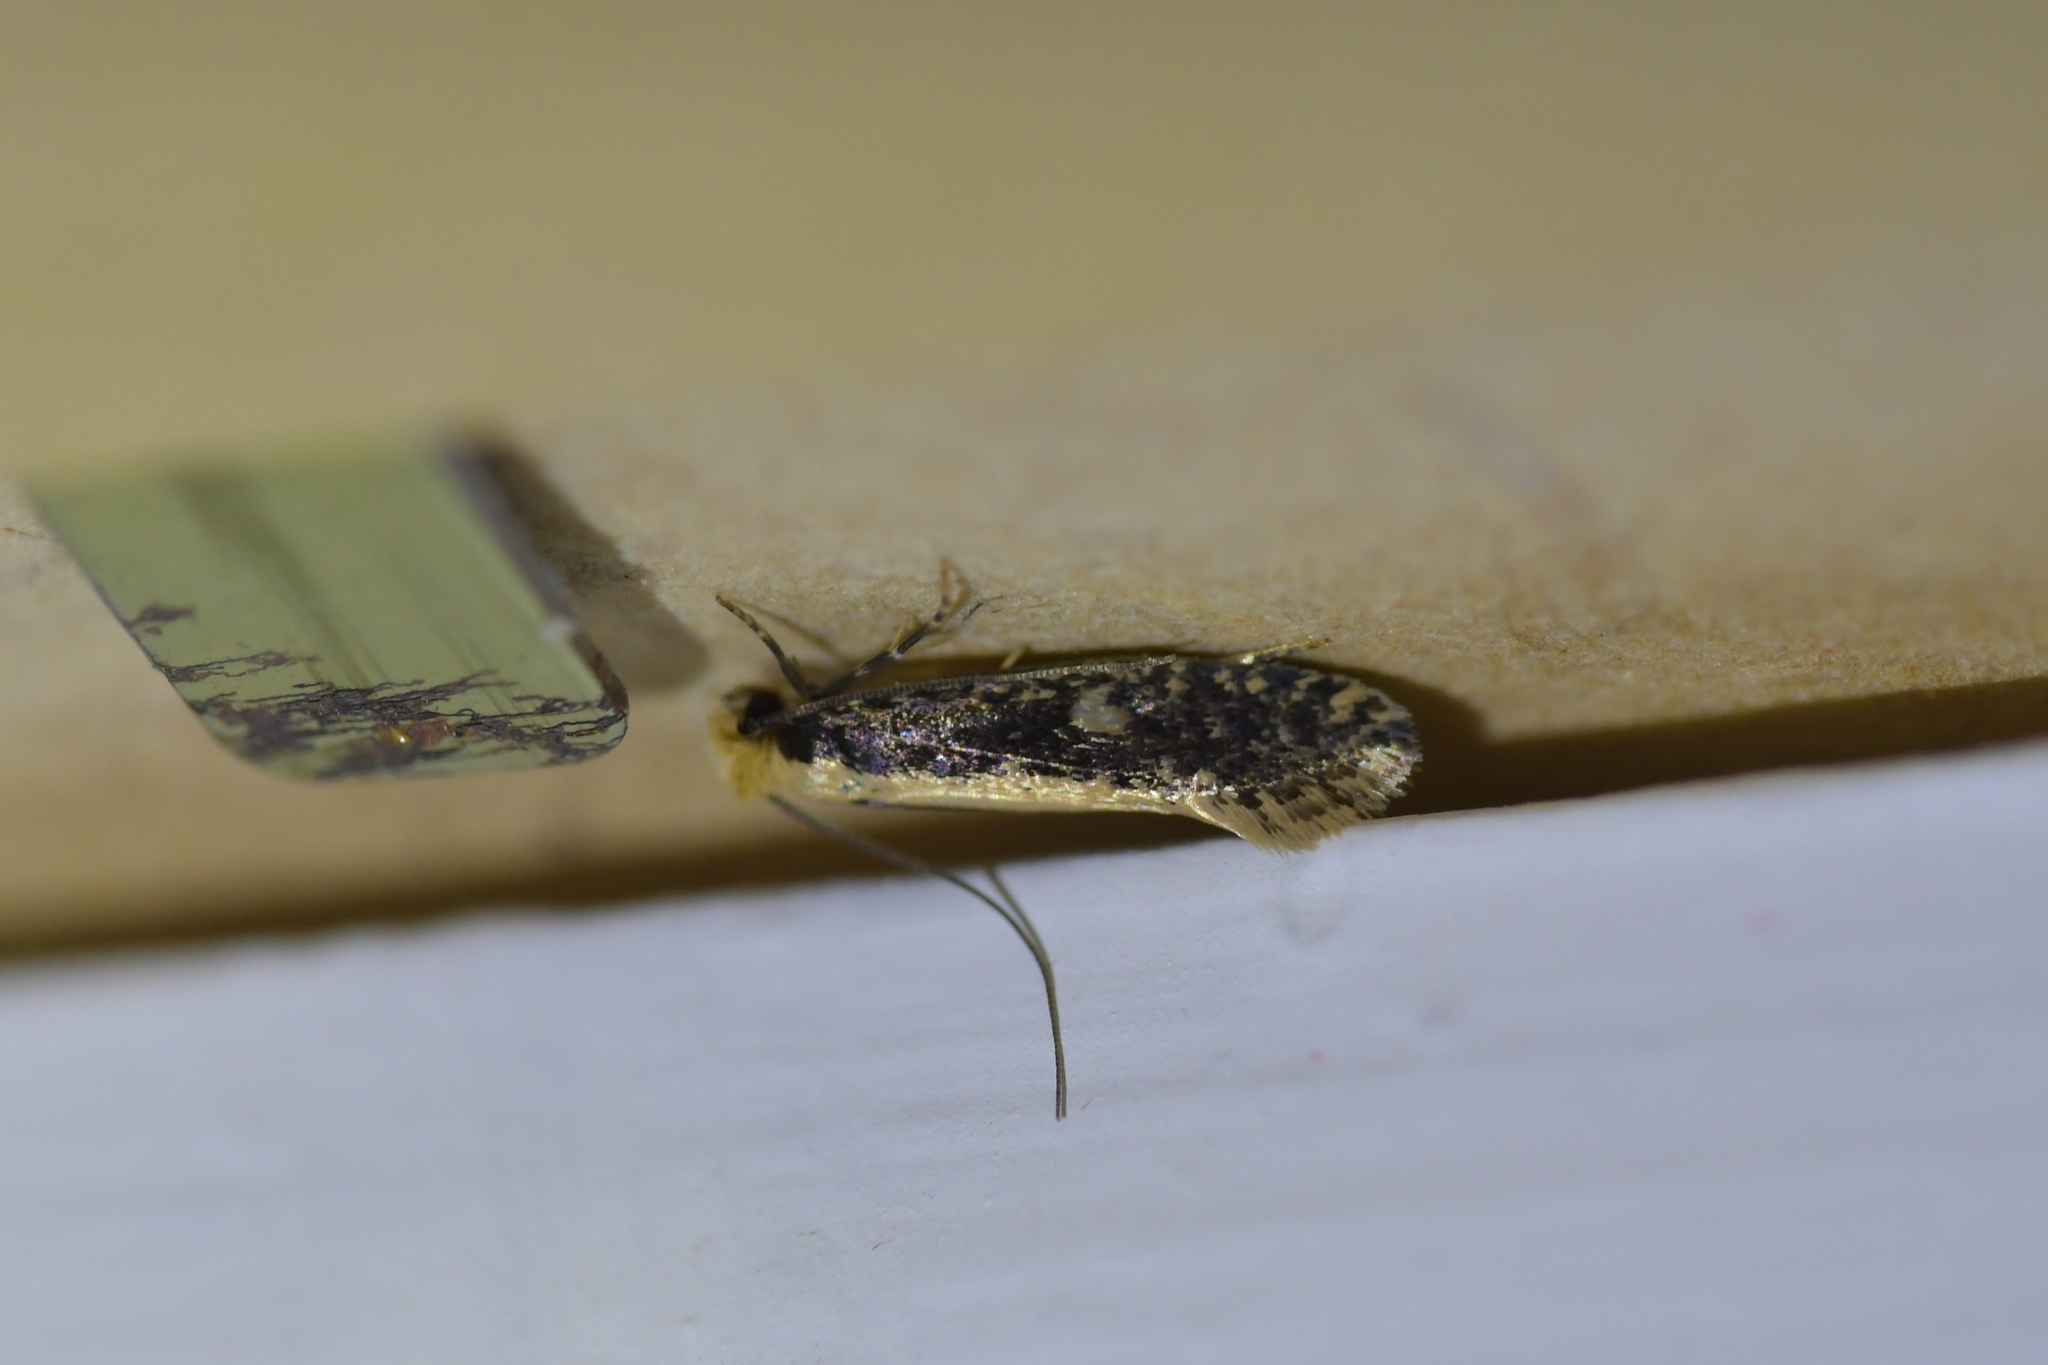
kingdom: Animalia
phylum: Arthropoda
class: Insecta
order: Lepidoptera
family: Tineidae
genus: Monopis
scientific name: Monopis crocicapitella
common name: Moth
